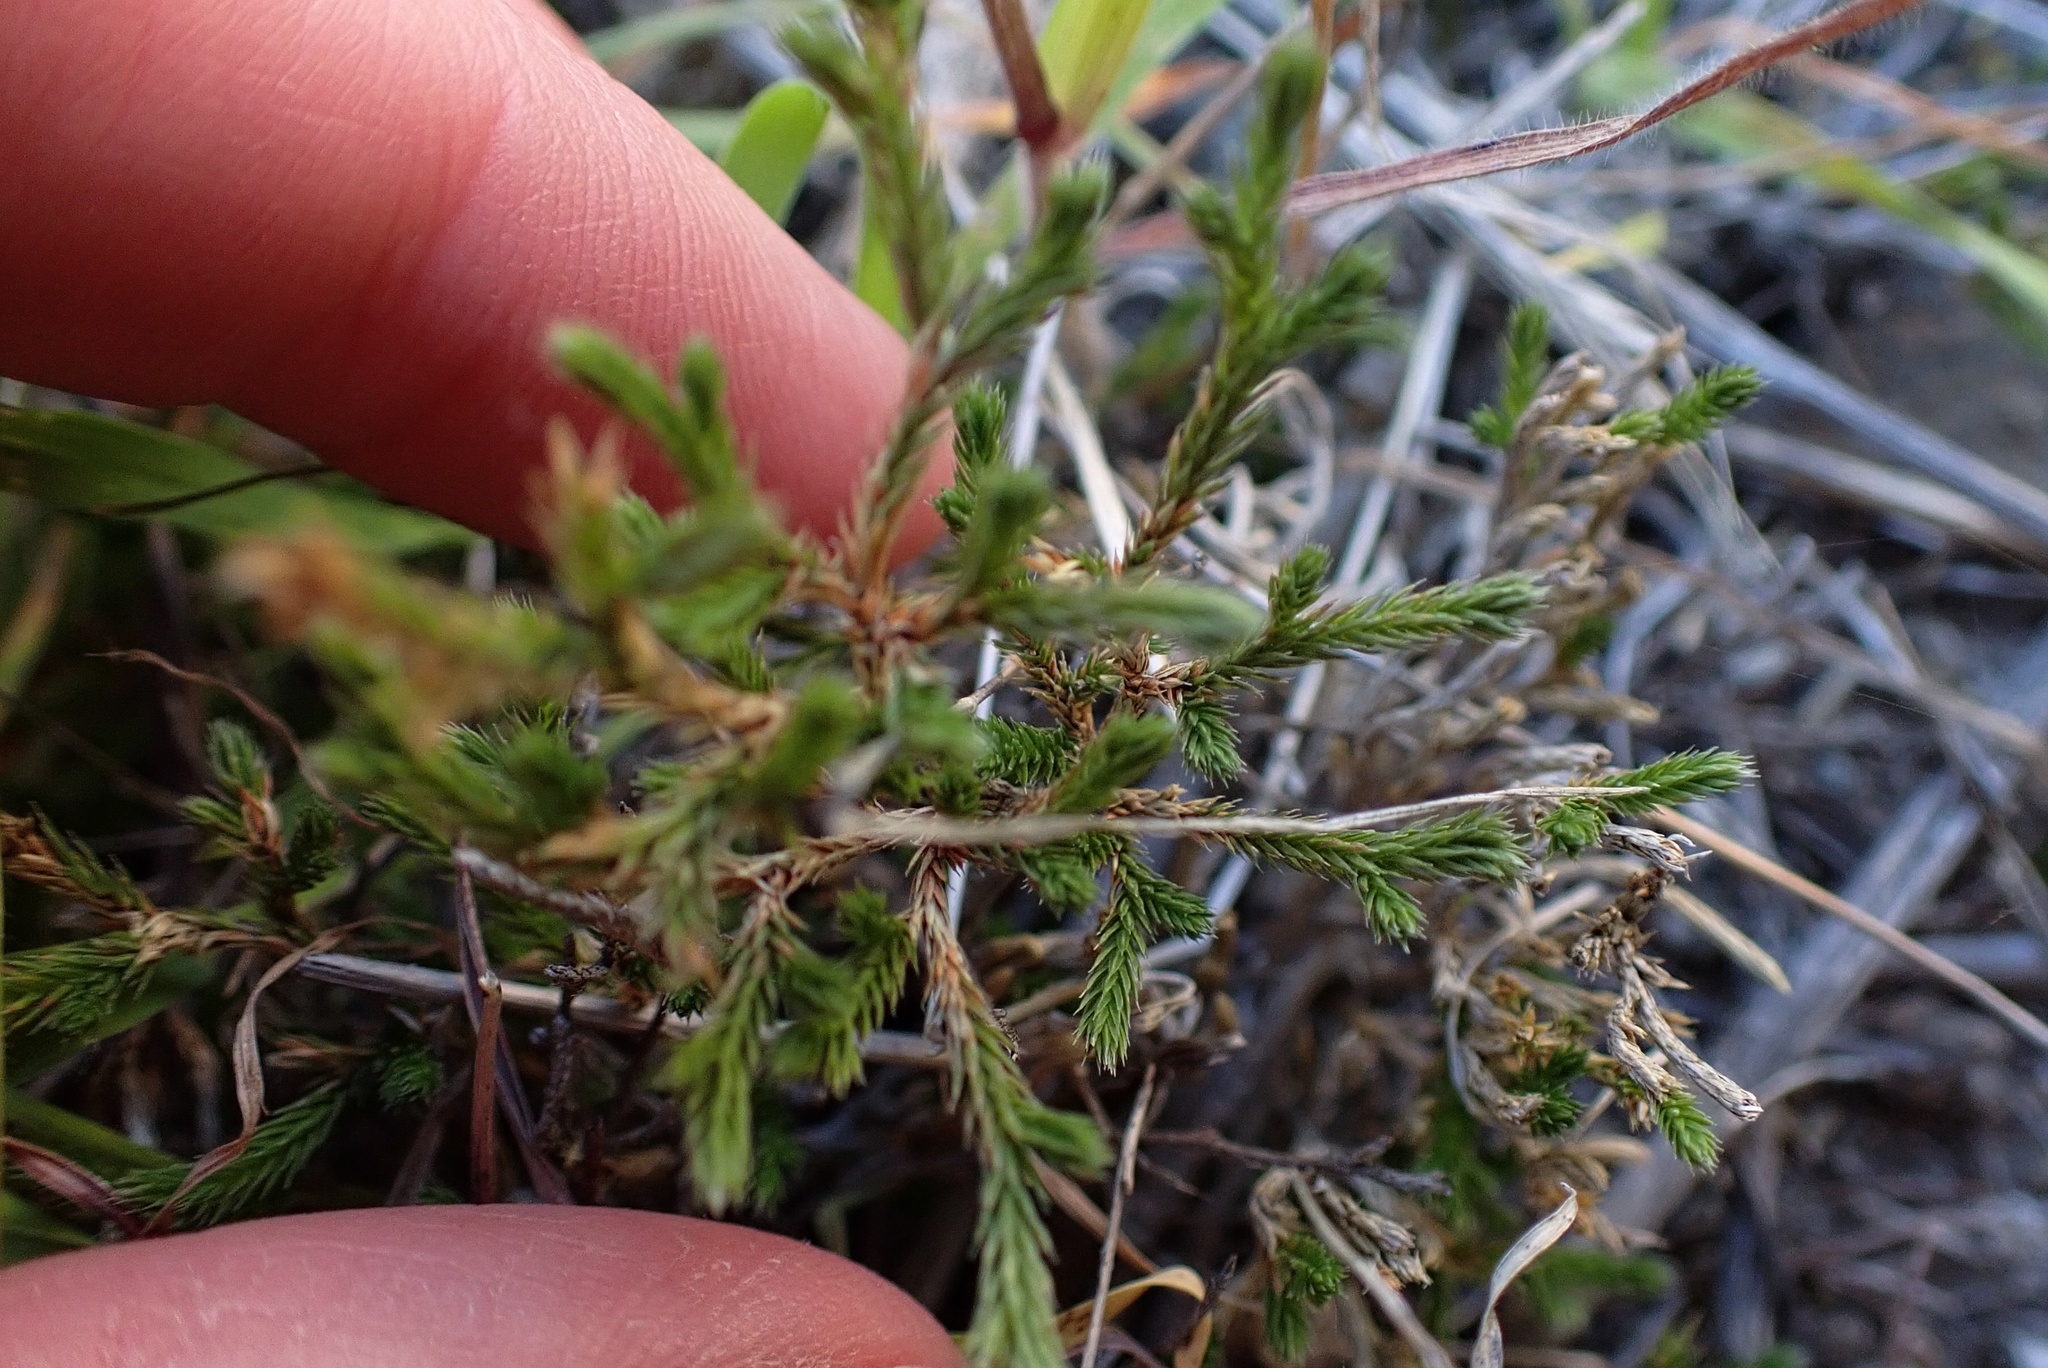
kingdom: Plantae
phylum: Tracheophyta
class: Lycopodiopsida
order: Selaginellales
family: Selaginellaceae
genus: Selaginella
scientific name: Selaginella bigelovii
